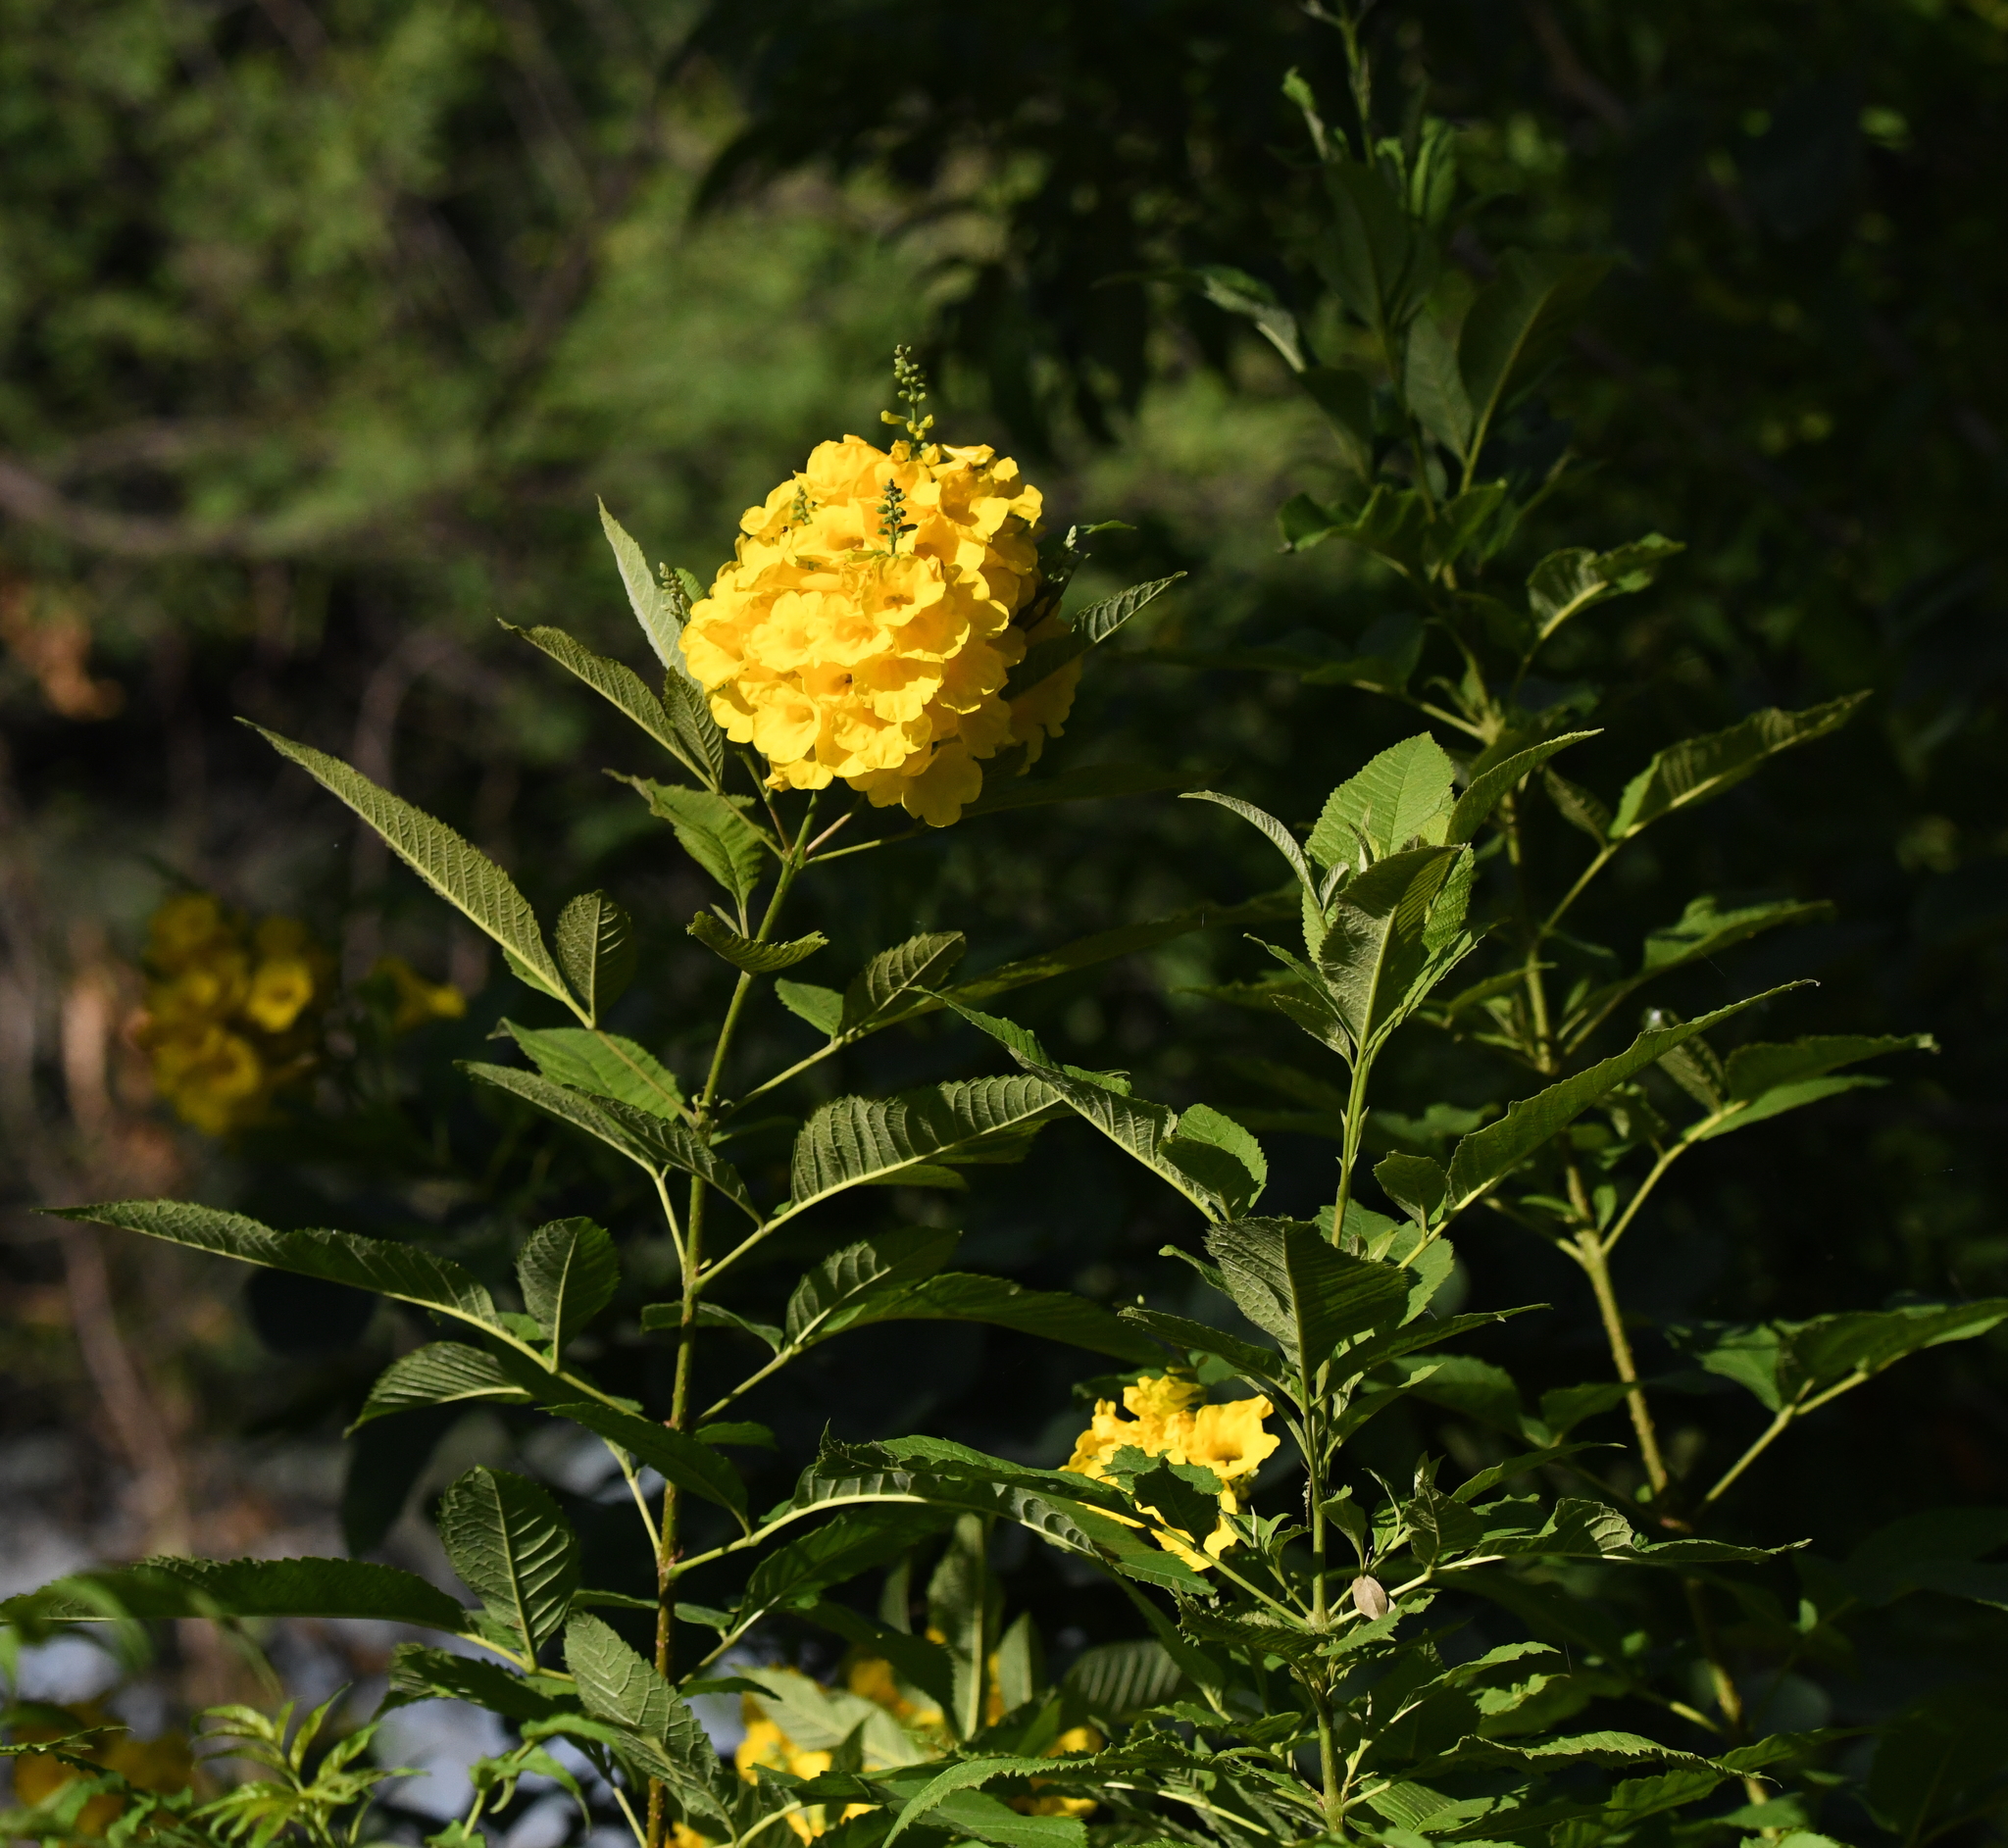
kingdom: Plantae
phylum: Tracheophyta
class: Magnoliopsida
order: Lamiales
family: Bignoniaceae
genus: Tecoma
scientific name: Tecoma stans
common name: Yellow trumpetbush
